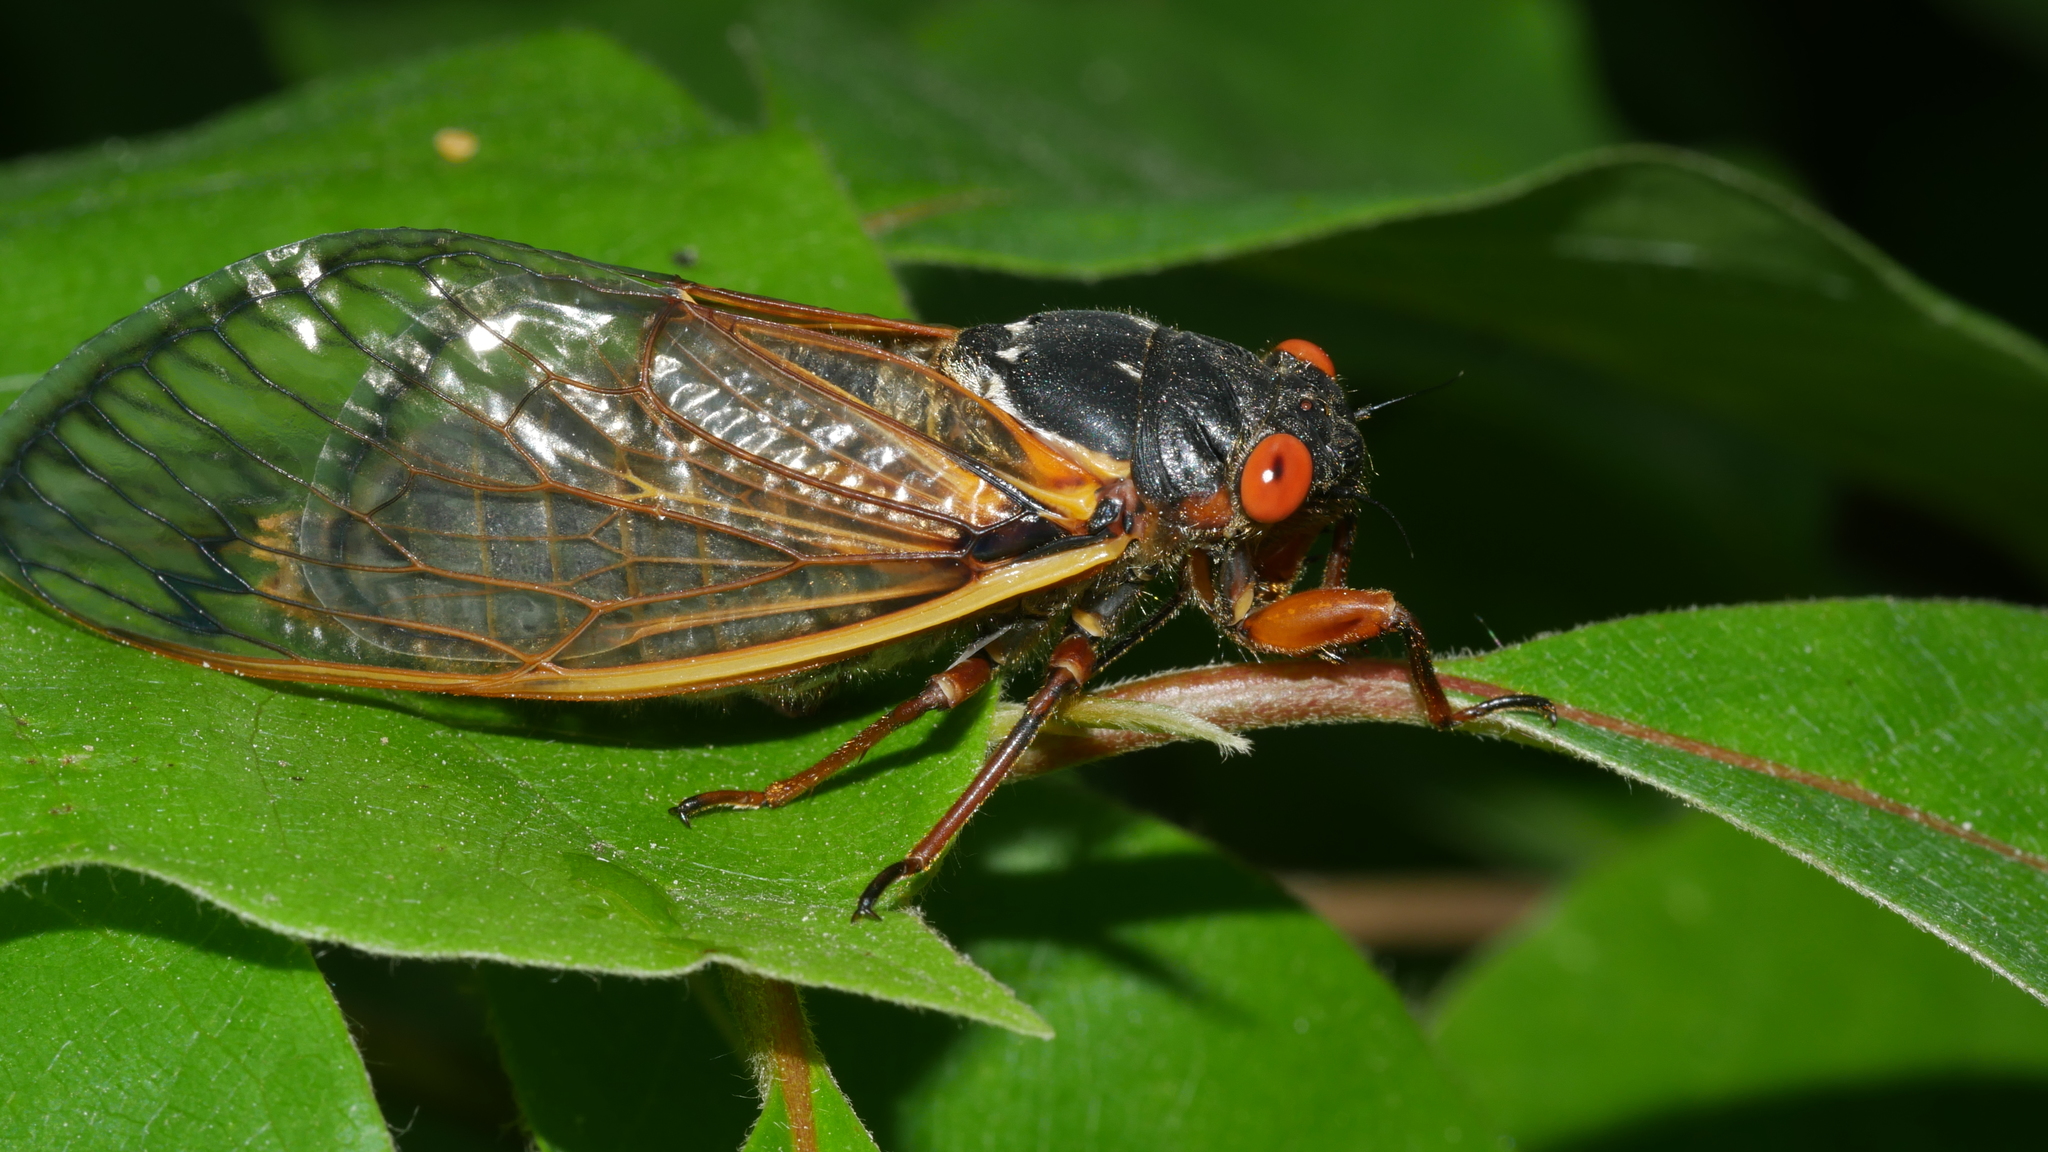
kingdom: Animalia
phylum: Arthropoda
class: Insecta
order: Hemiptera
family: Cicadidae
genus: Magicicada
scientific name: Magicicada septendecim
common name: Periodical cicada
